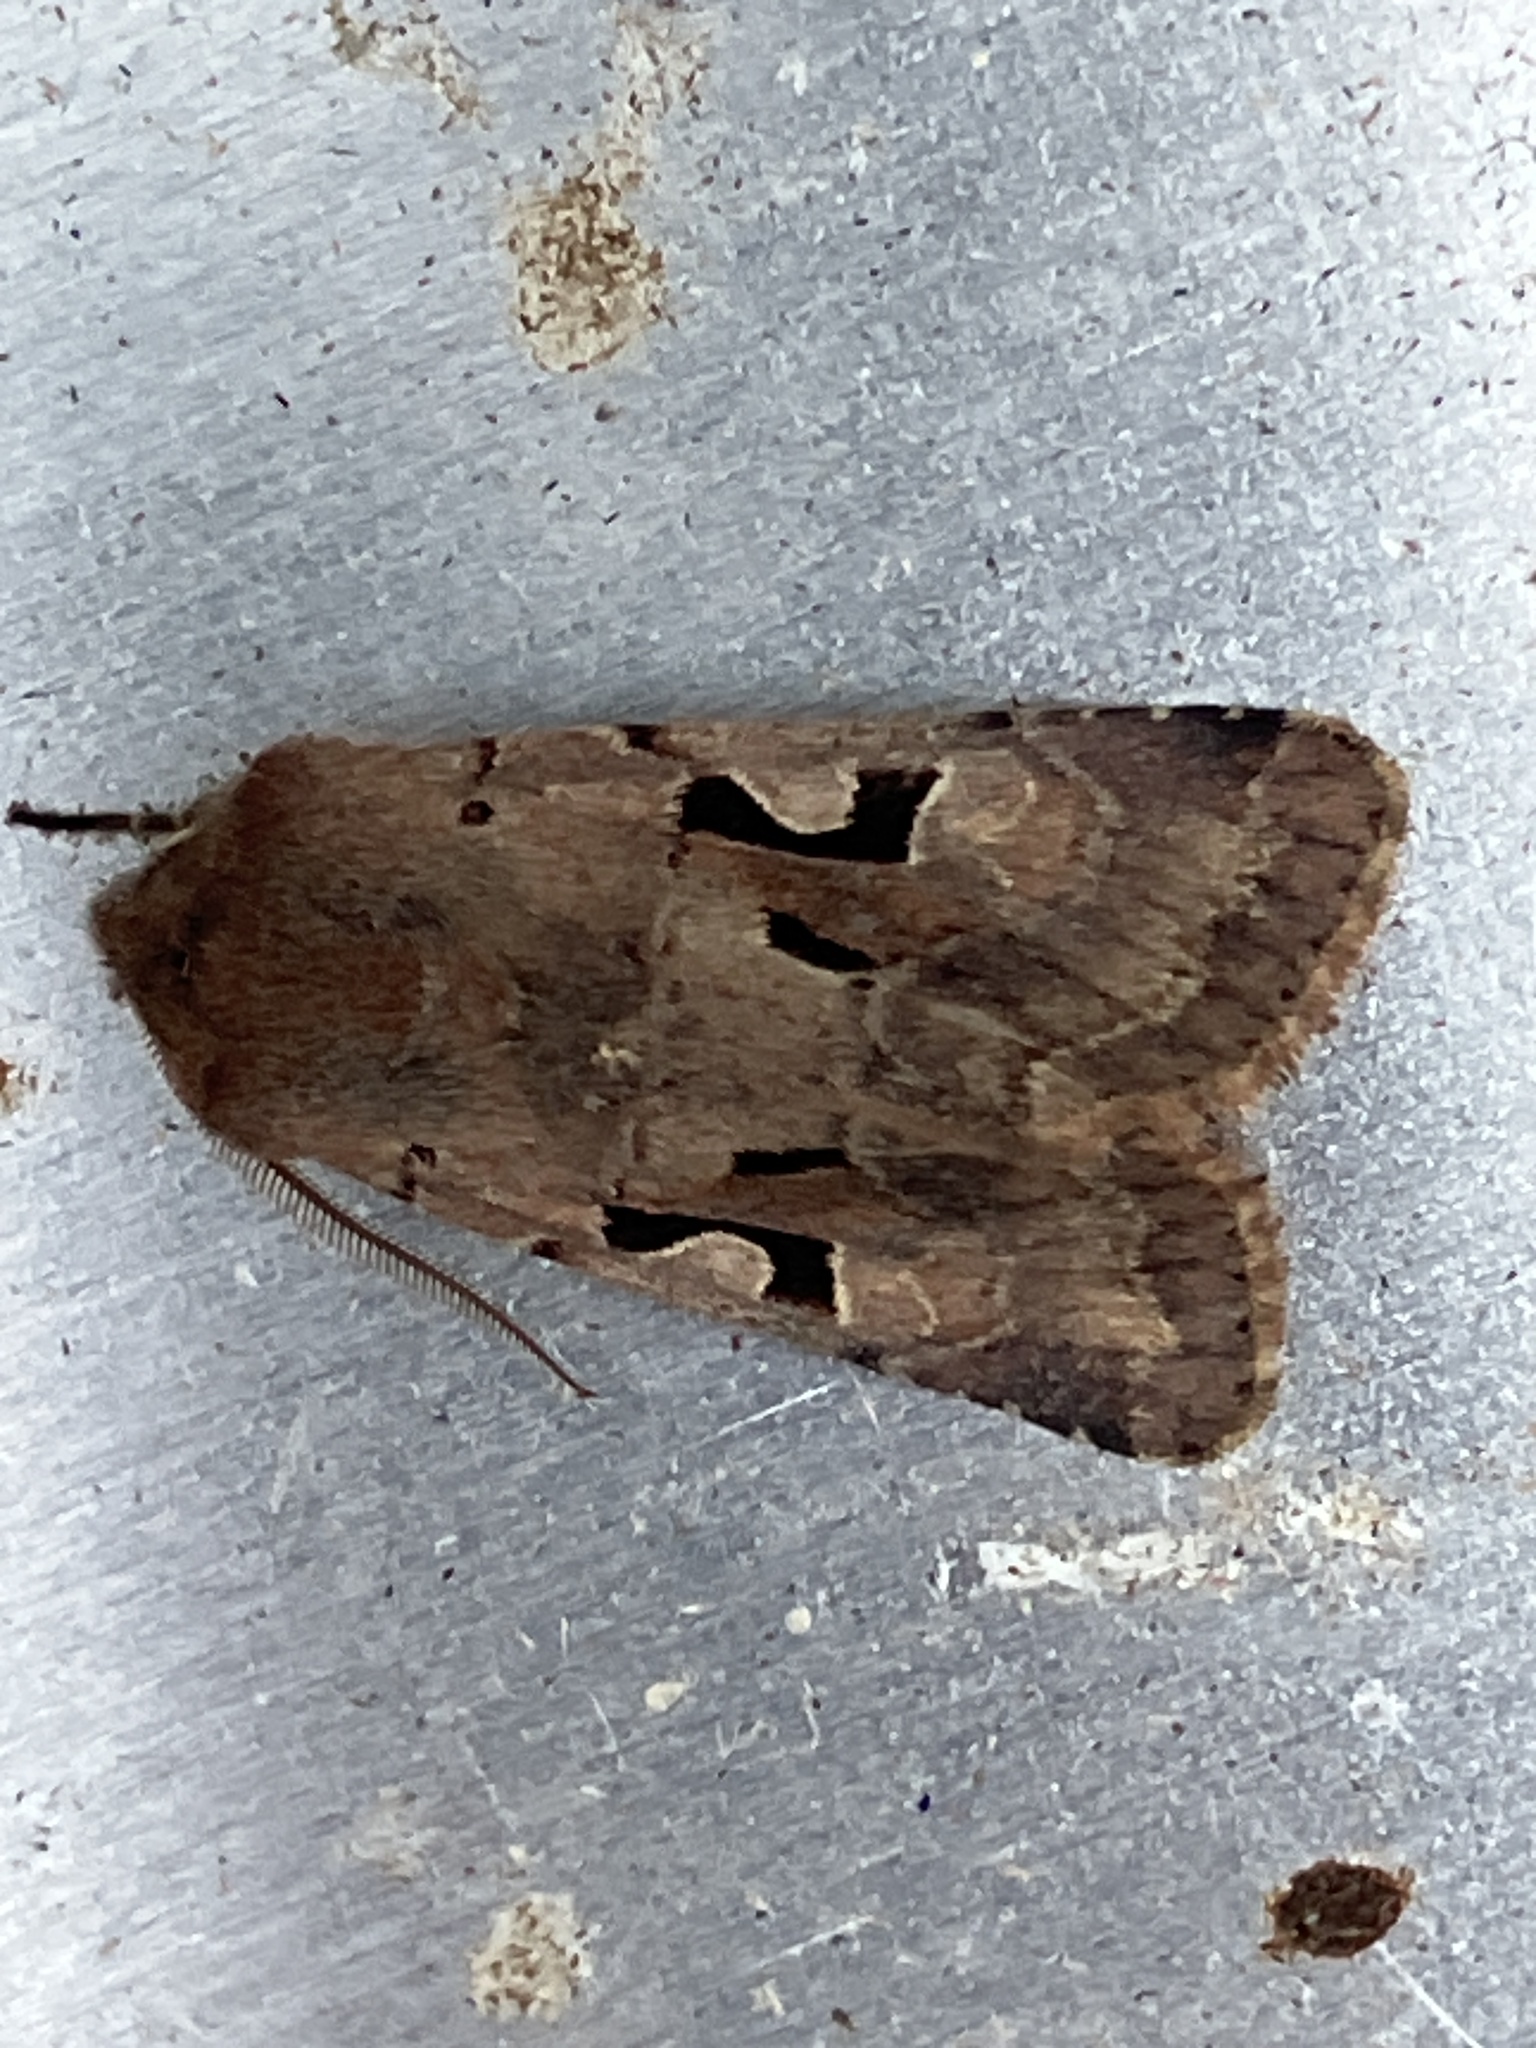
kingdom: Animalia
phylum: Arthropoda
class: Insecta
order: Lepidoptera
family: Noctuidae
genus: Orthosia
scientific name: Orthosia gothica
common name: Hebrew character
